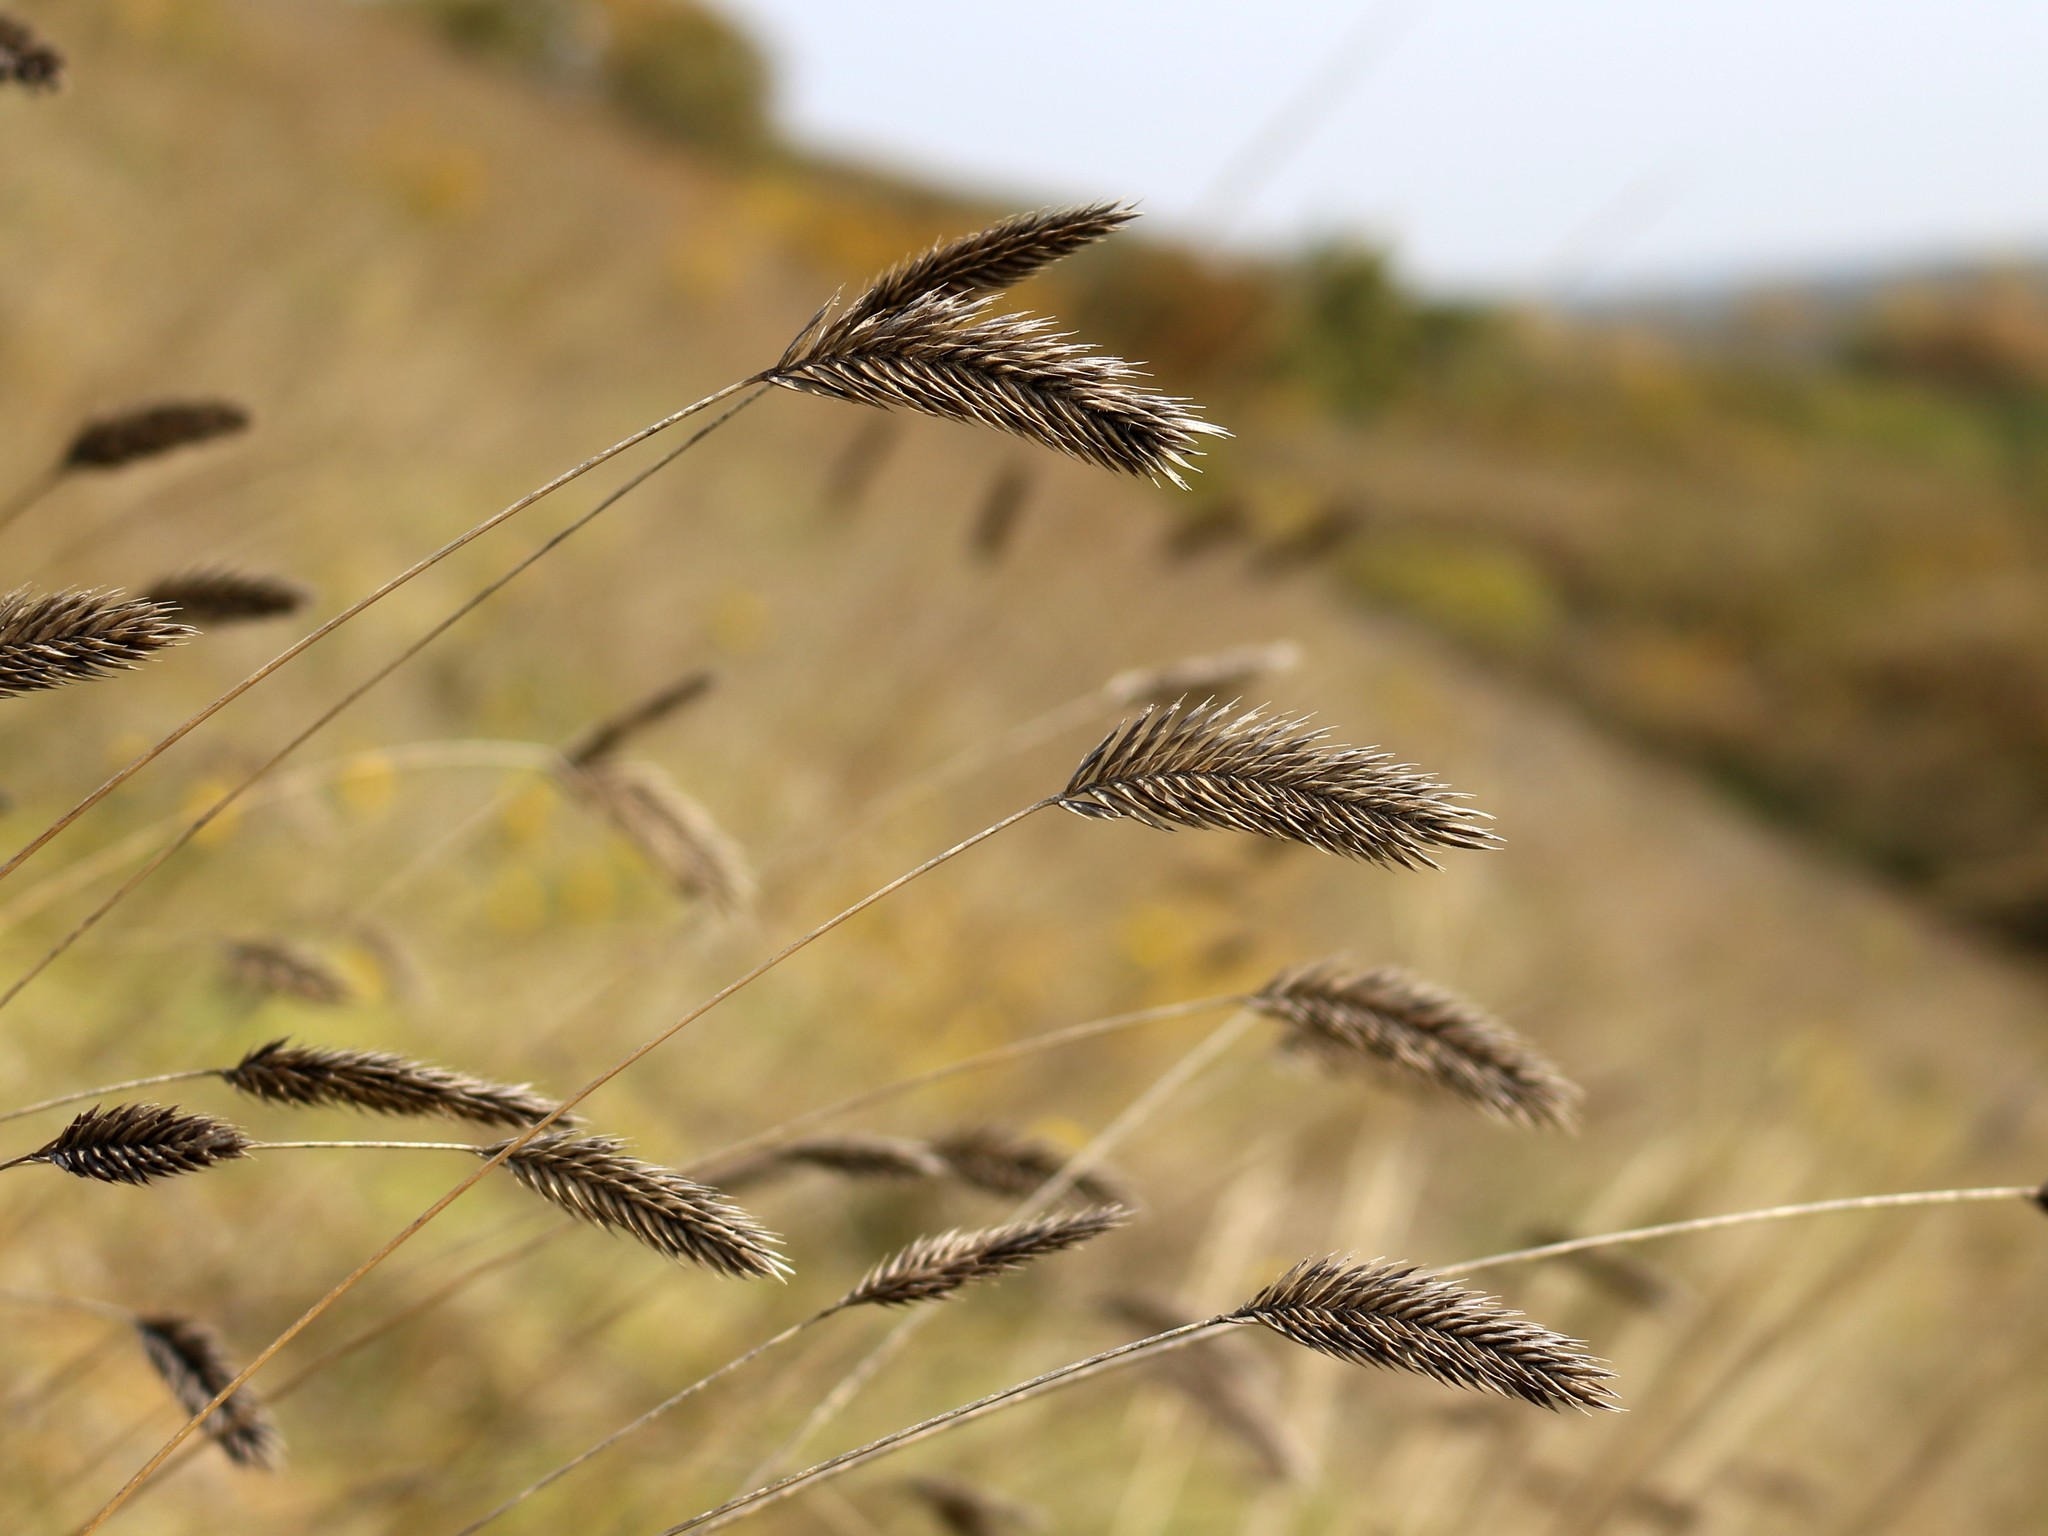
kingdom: Plantae
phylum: Tracheophyta
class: Liliopsida
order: Poales
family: Poaceae
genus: Agropyron
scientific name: Agropyron cristatum
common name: Crested wheatgrass
